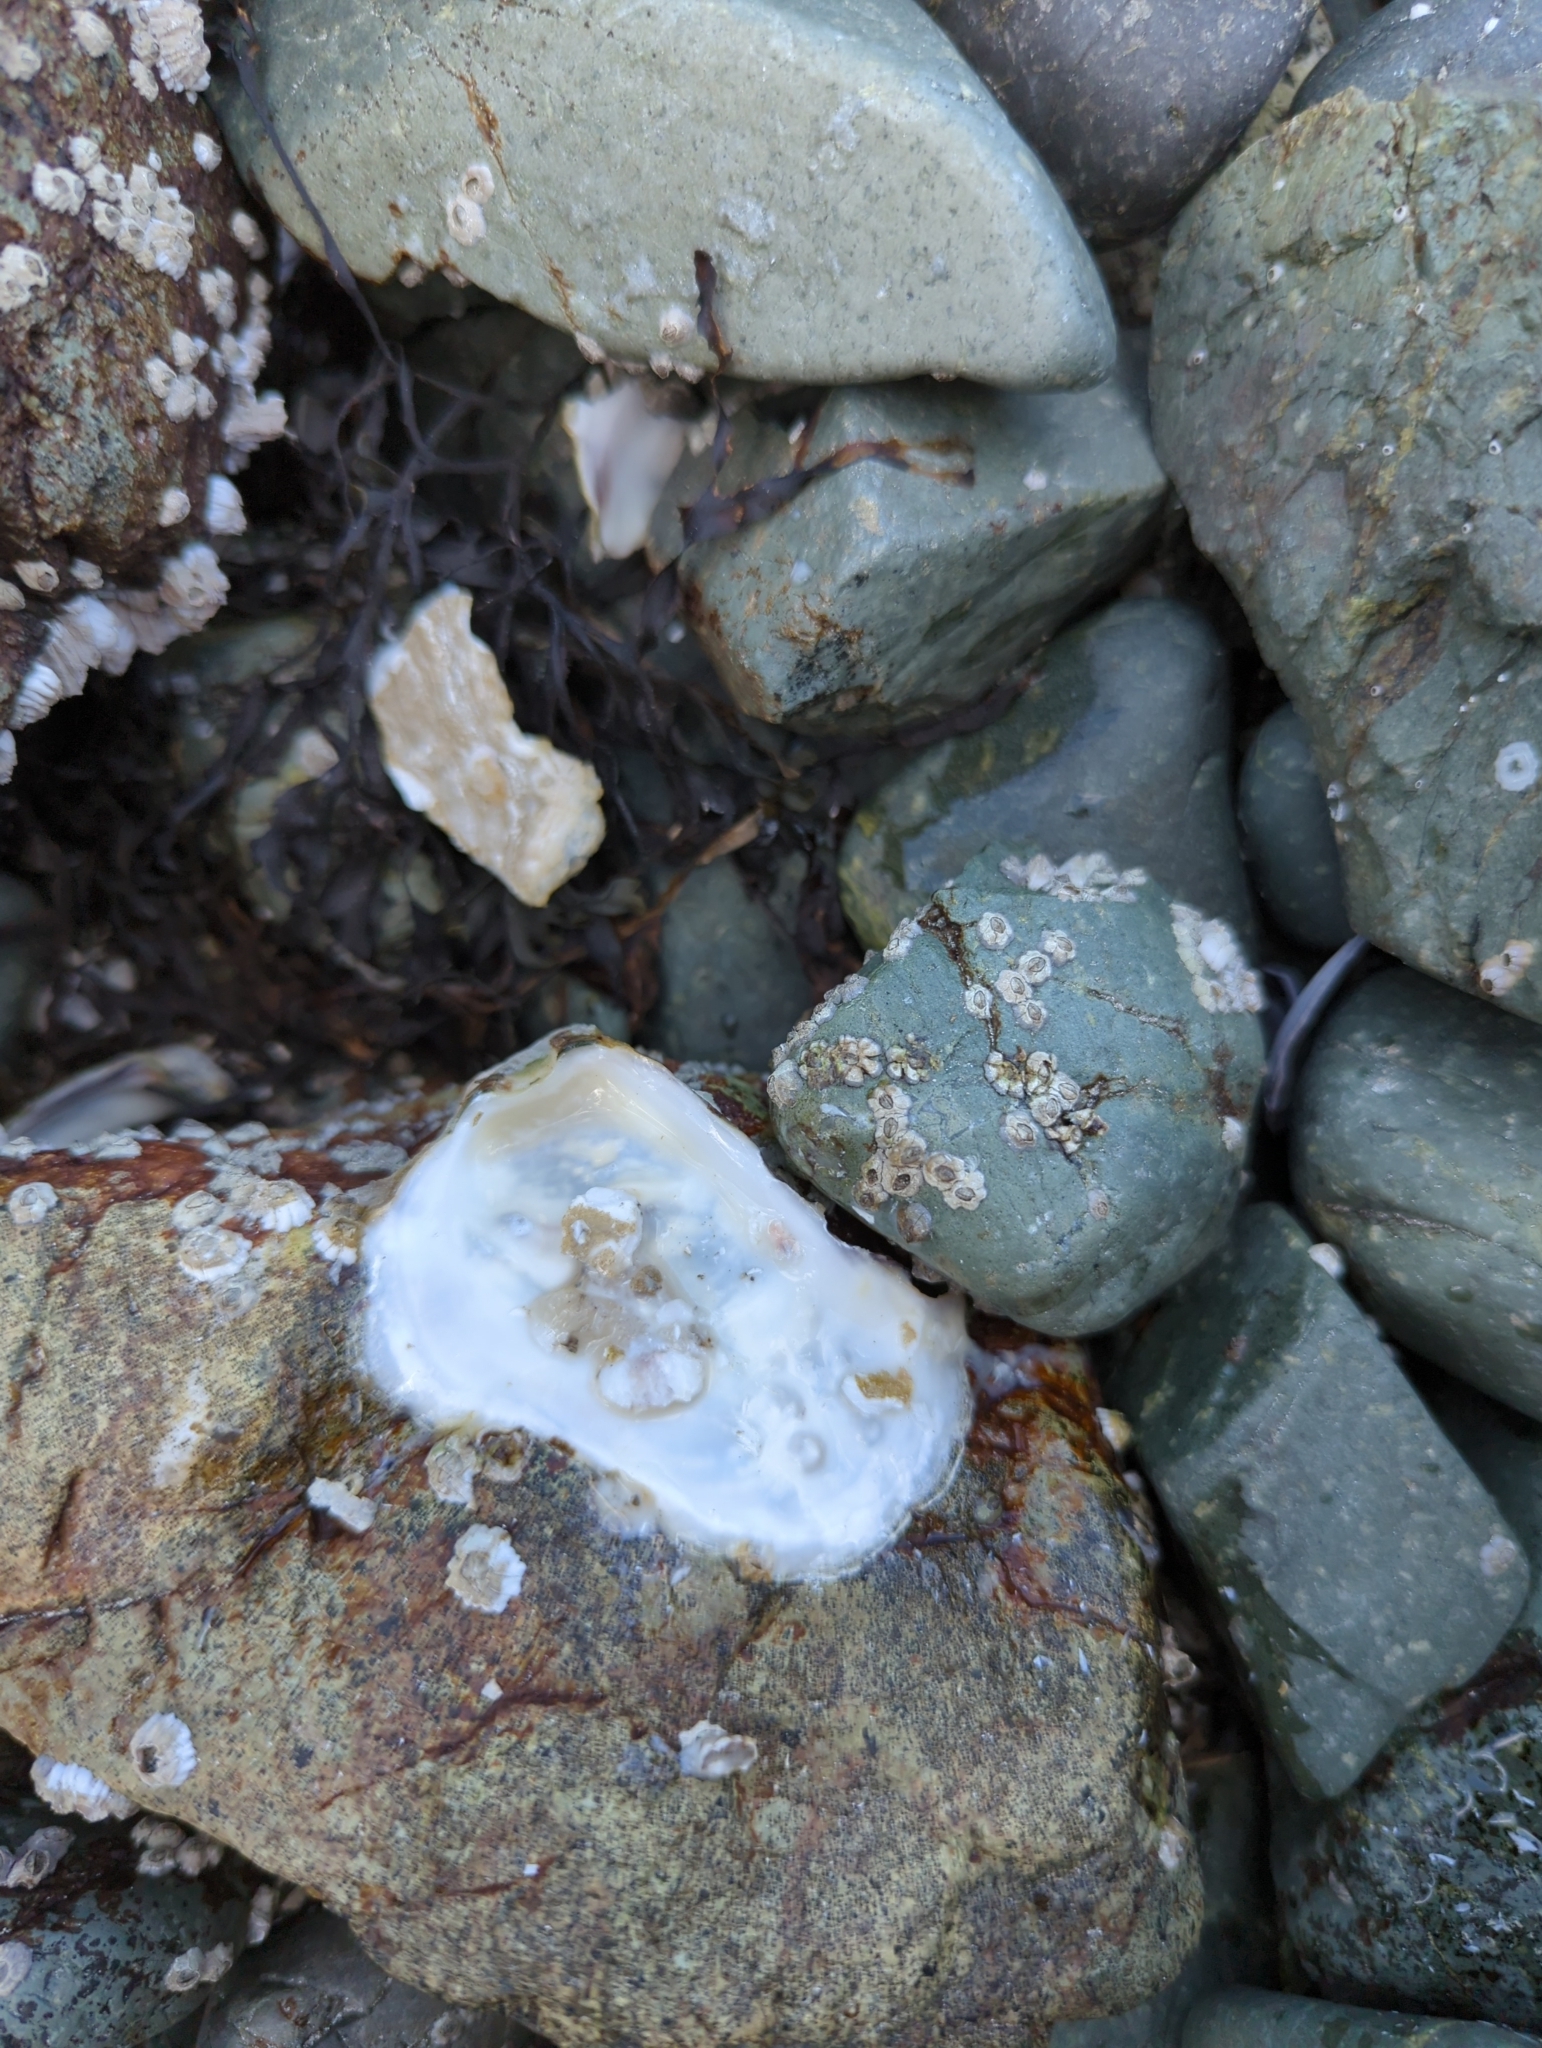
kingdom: Animalia
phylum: Mollusca
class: Bivalvia
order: Ostreida
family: Ostreidae
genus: Magallana
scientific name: Magallana gigas
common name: Pacific oyster
